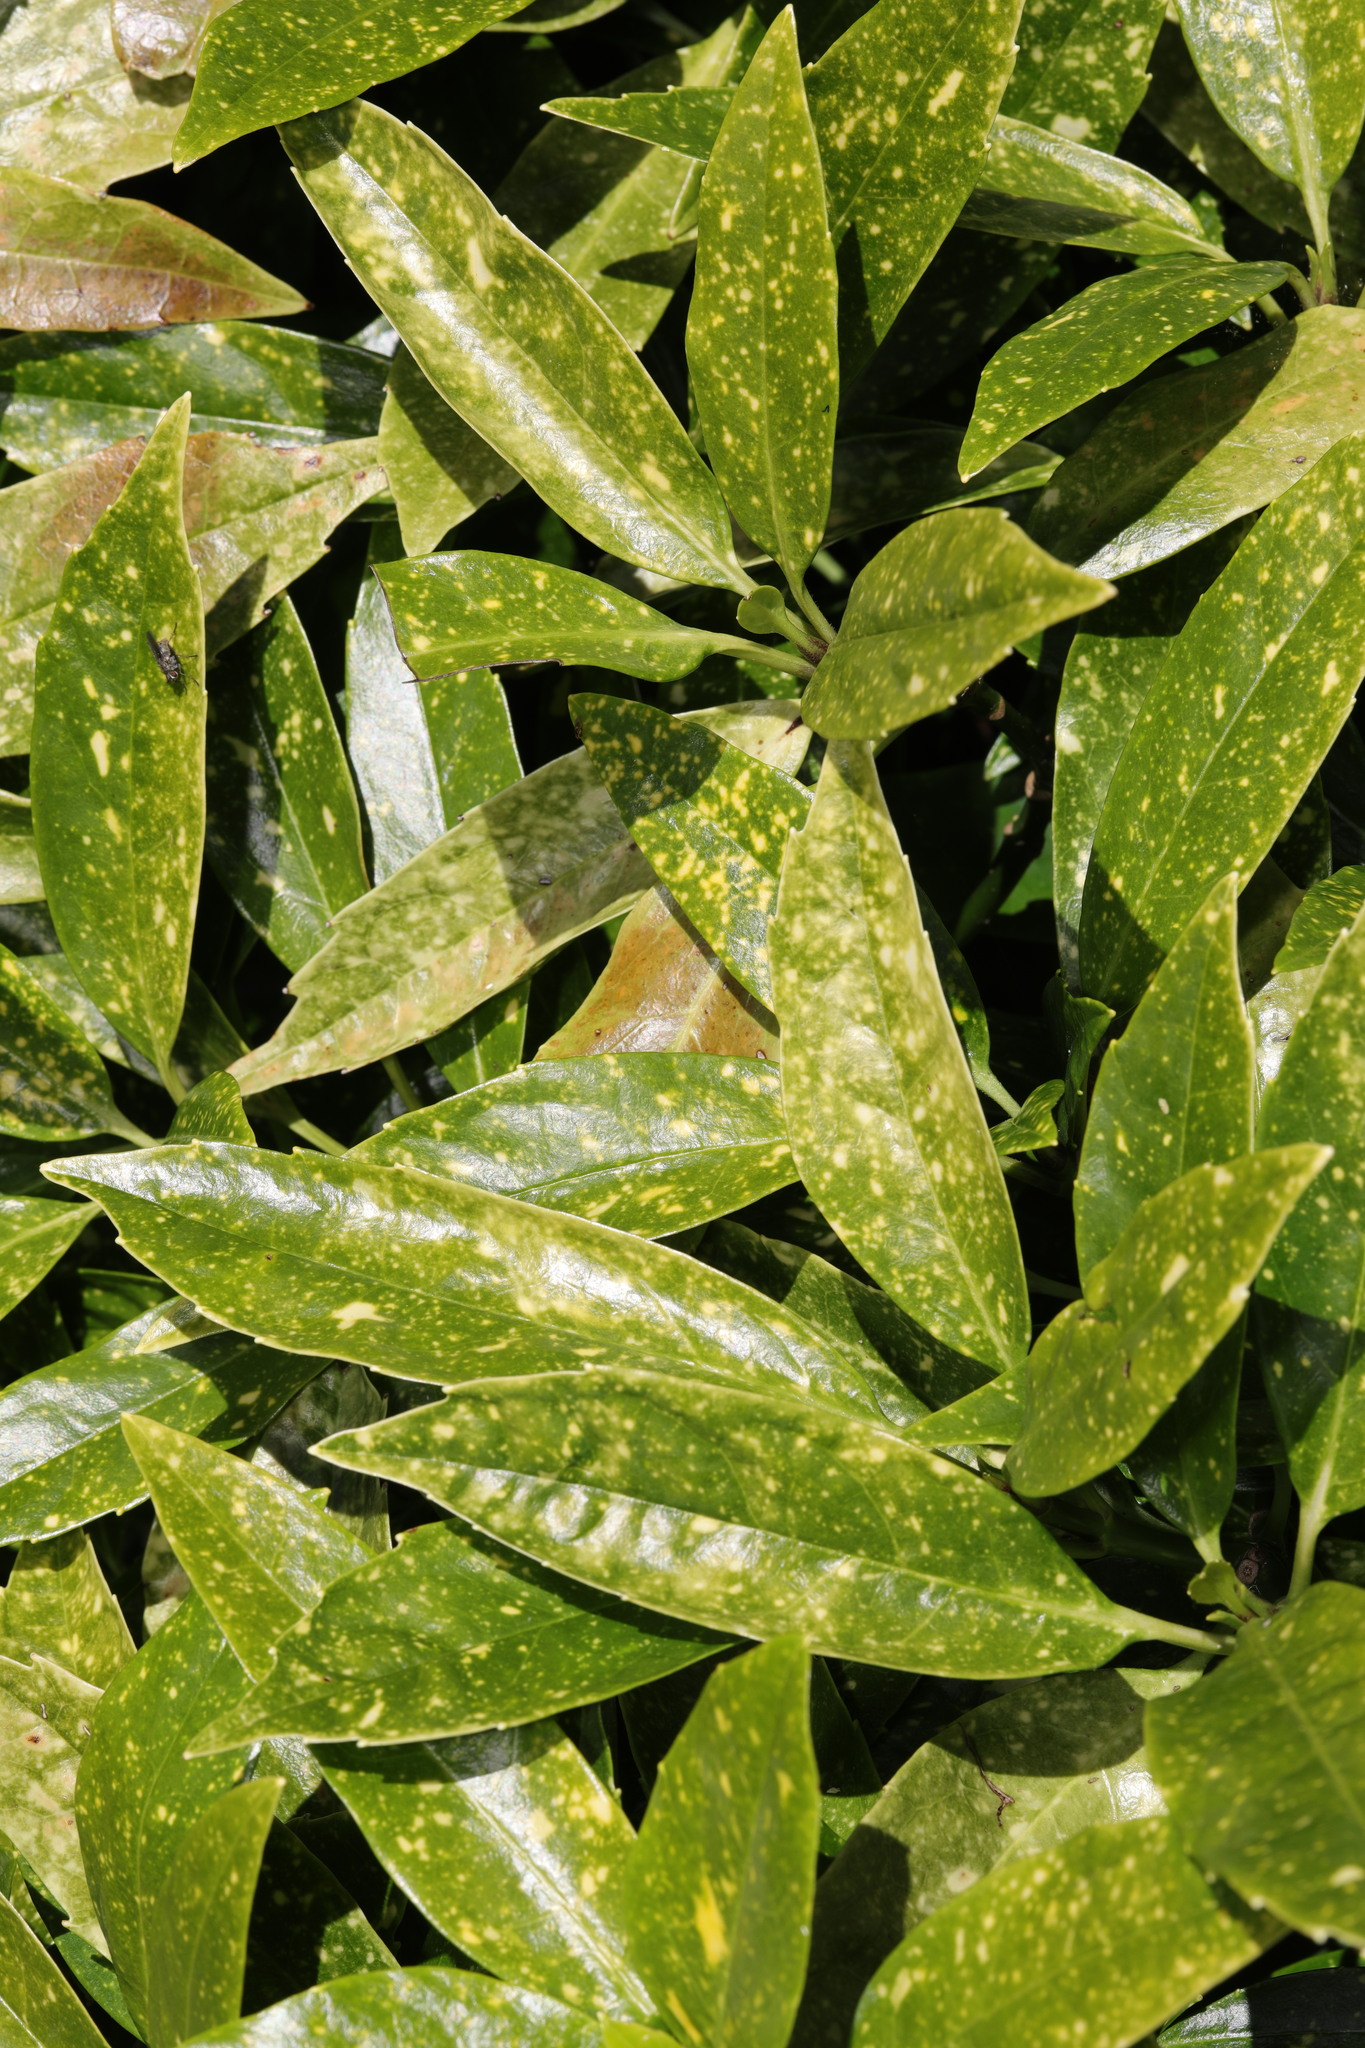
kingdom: Plantae
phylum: Tracheophyta
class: Magnoliopsida
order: Garryales
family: Garryaceae
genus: Aucuba
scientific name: Aucuba japonica
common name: Spotted-laurel
